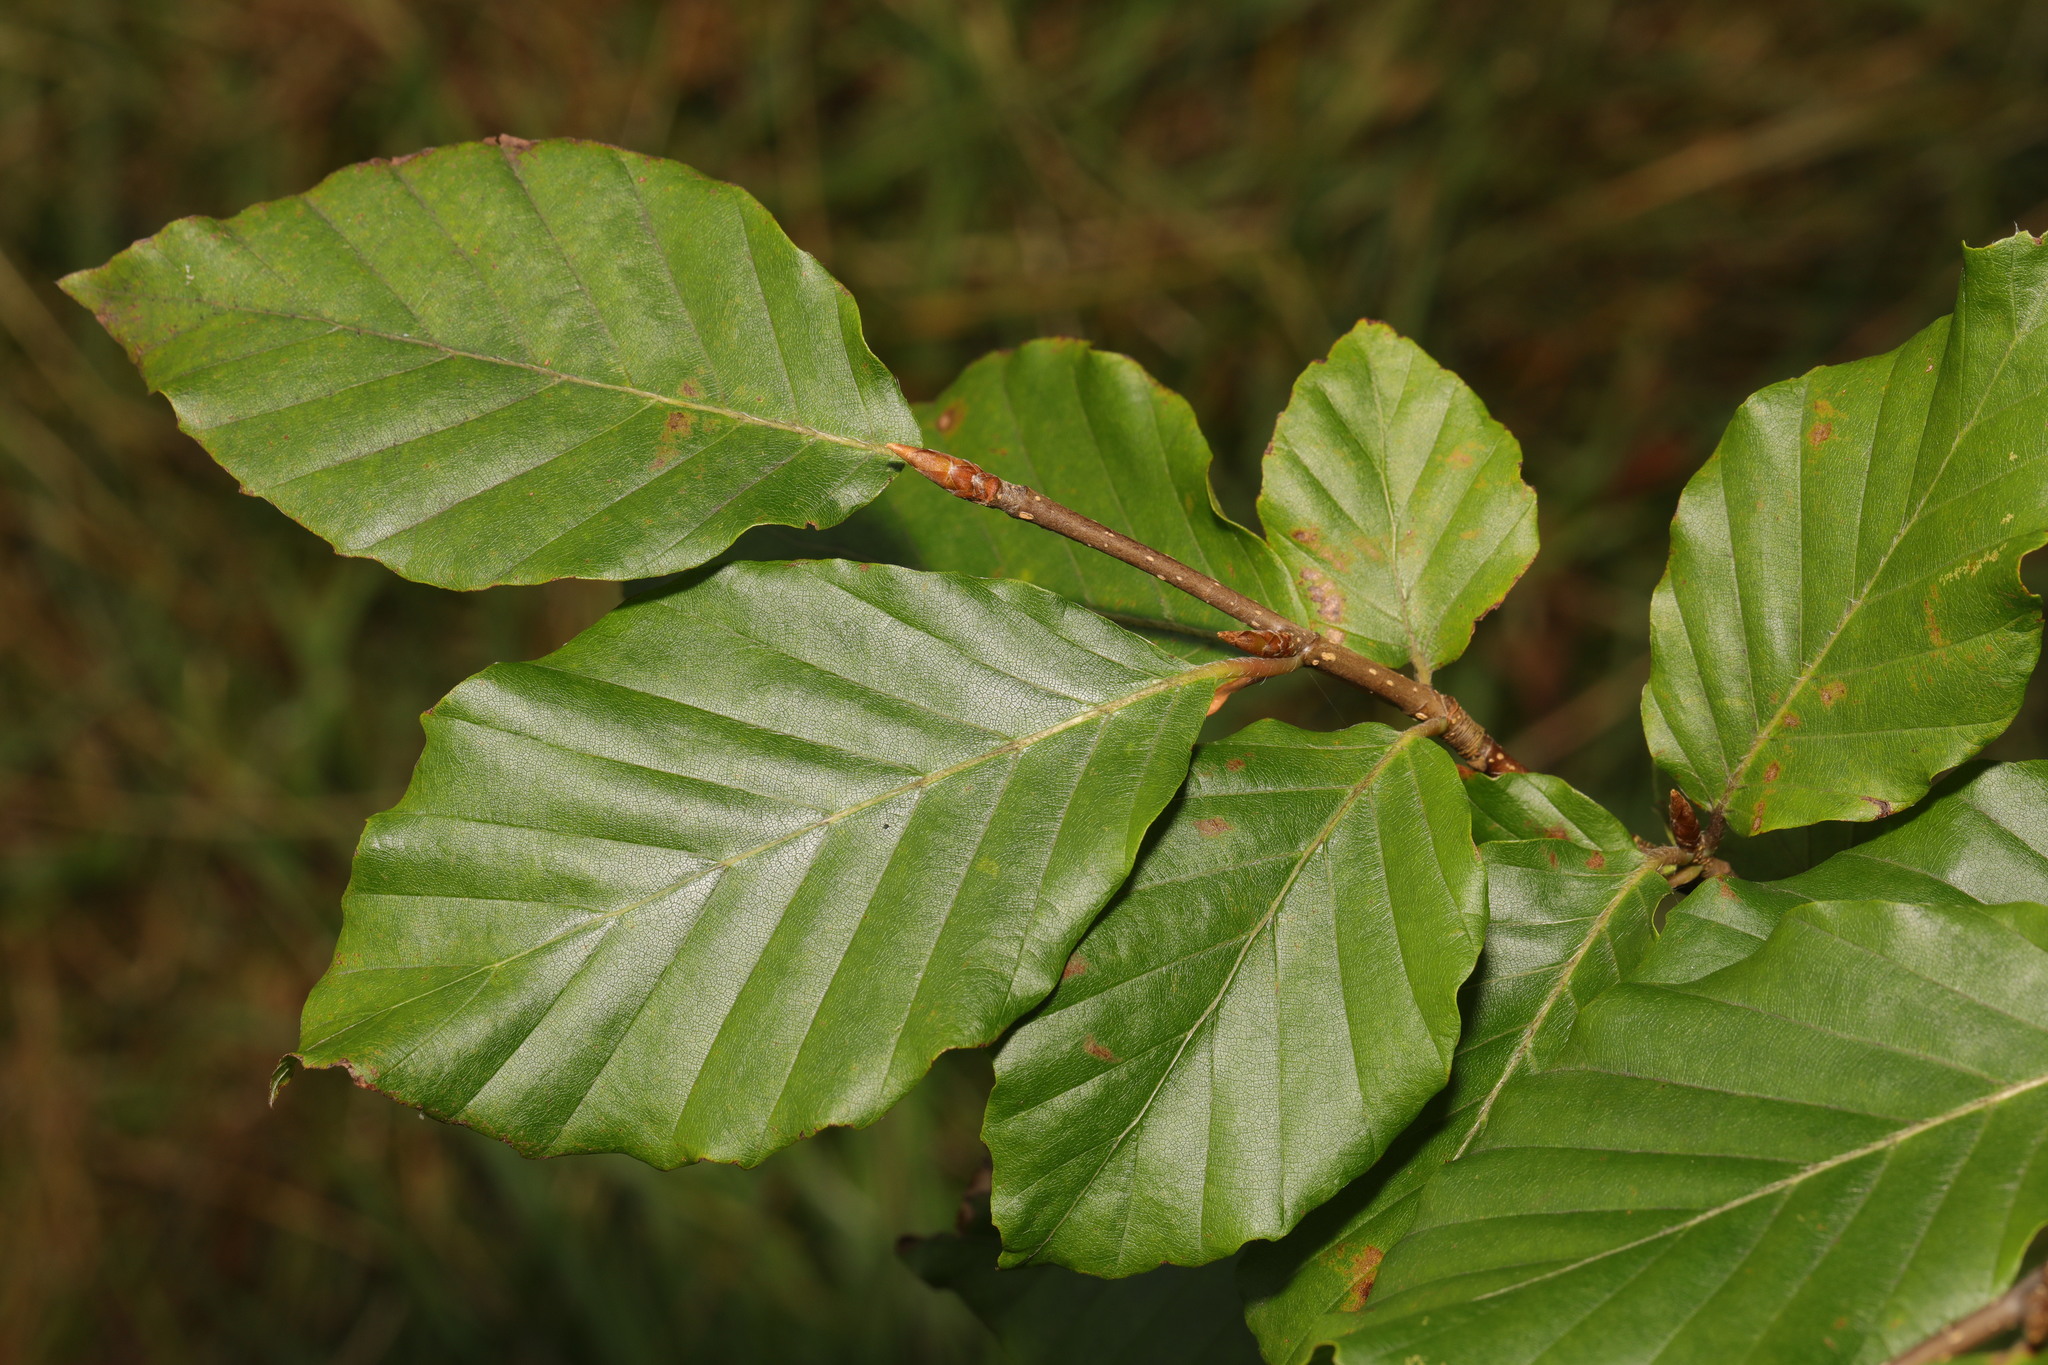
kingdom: Plantae
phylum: Tracheophyta
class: Magnoliopsida
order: Fagales
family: Fagaceae
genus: Fagus
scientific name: Fagus sylvatica
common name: Beech
